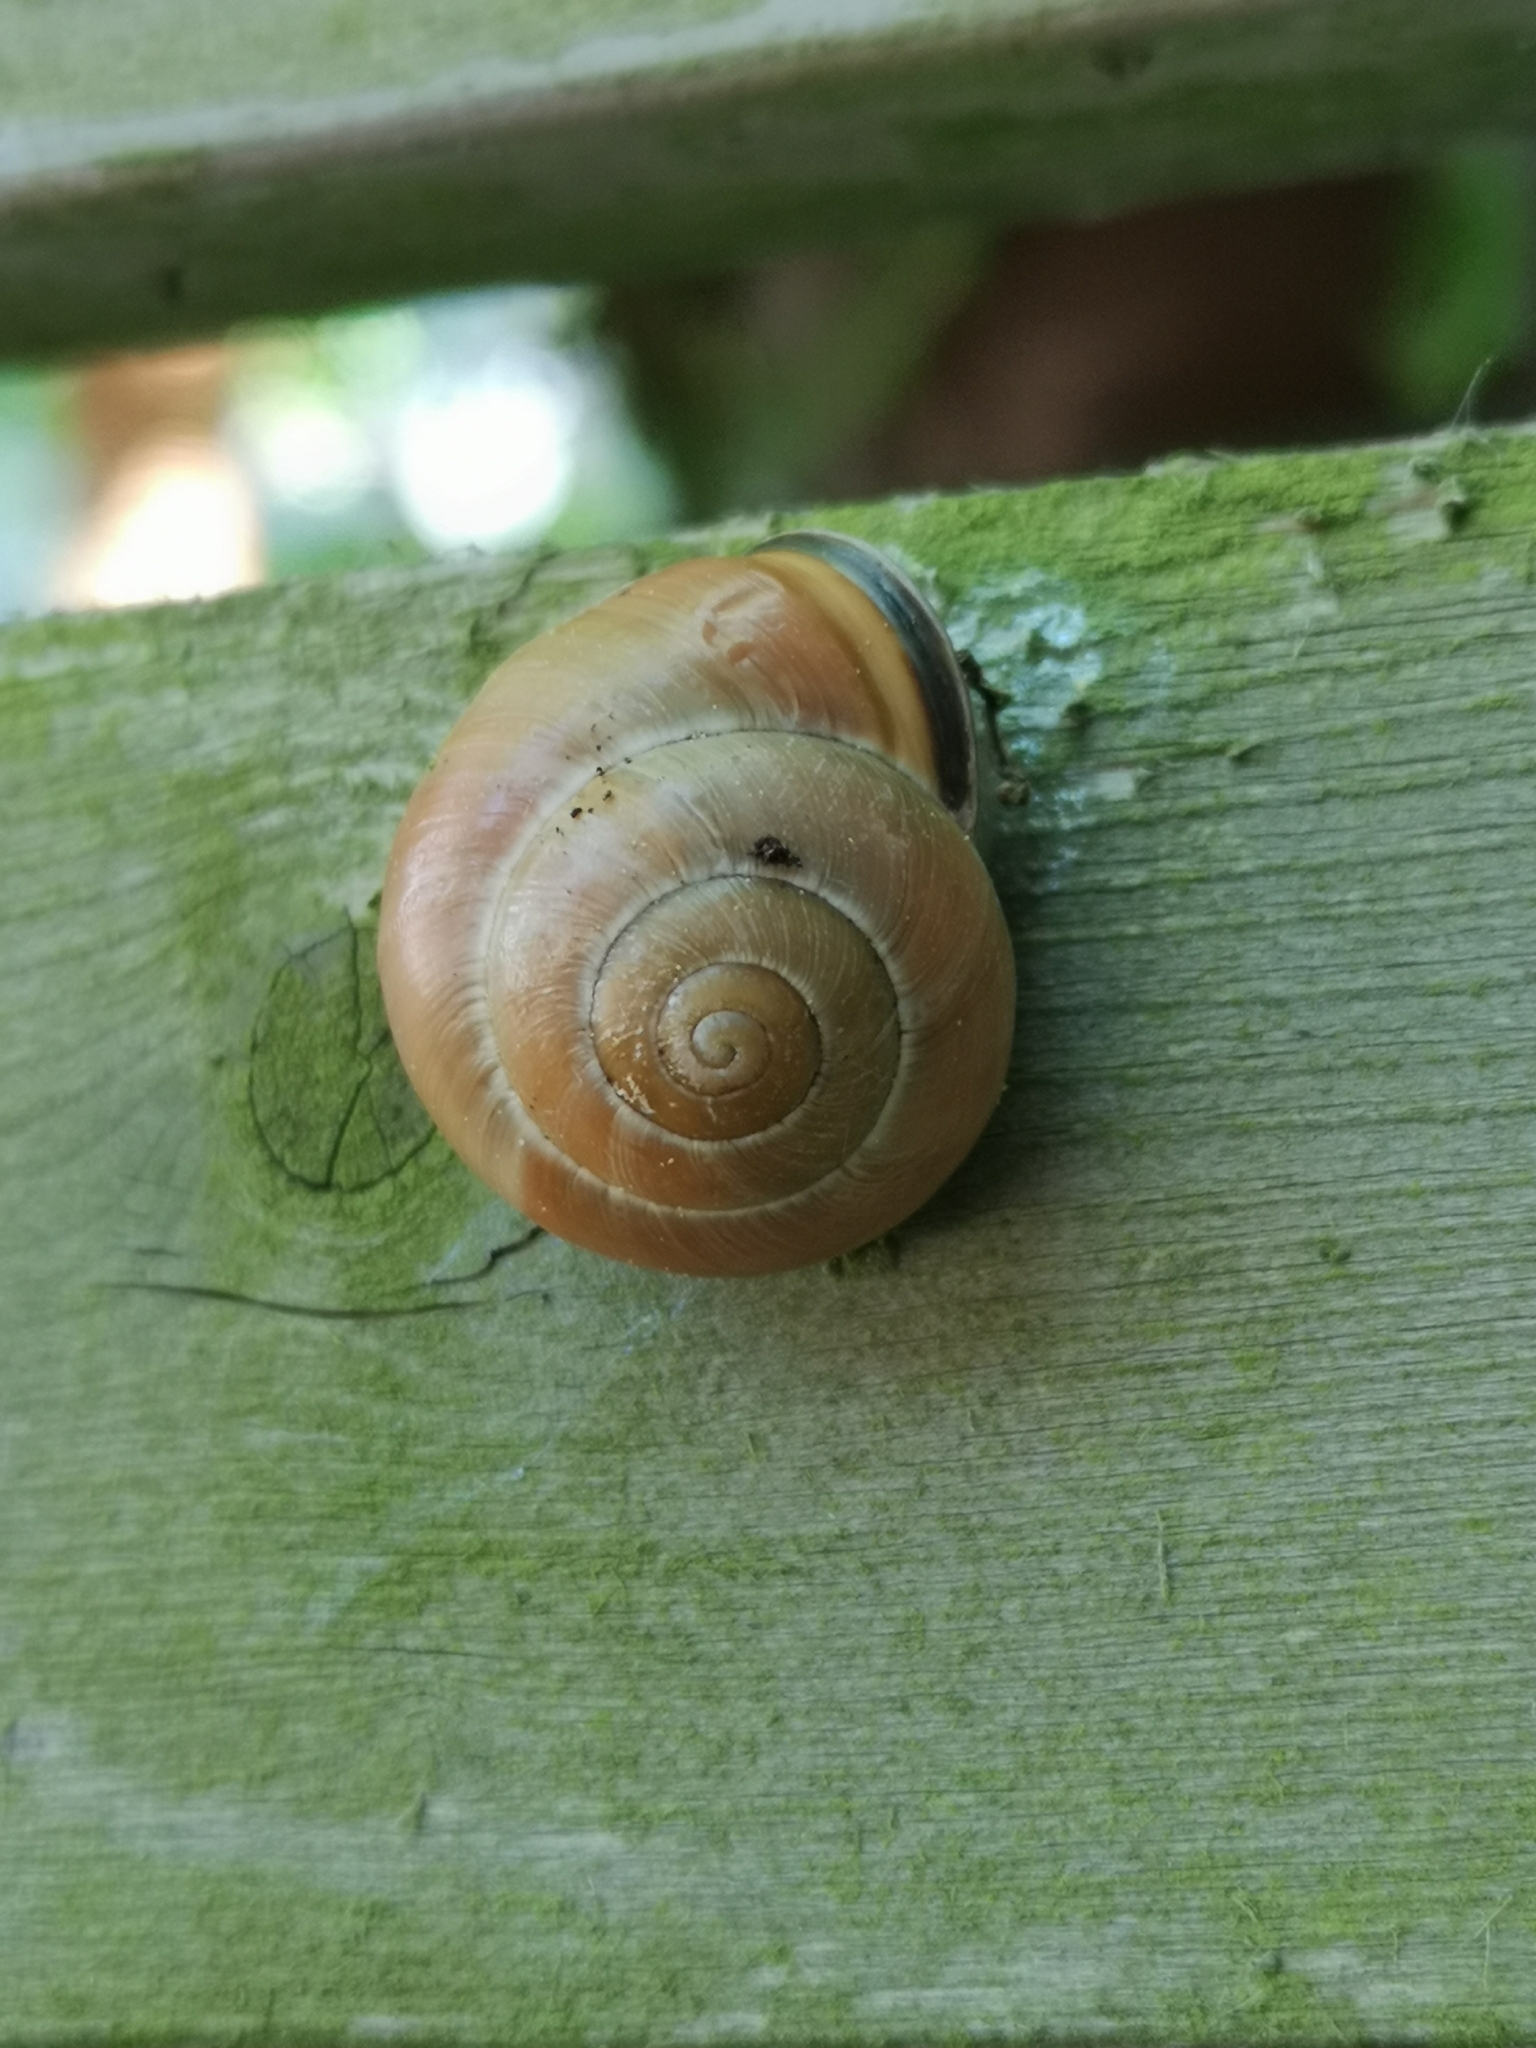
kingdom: Animalia
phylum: Mollusca
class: Gastropoda
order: Stylommatophora
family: Helicidae
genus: Cepaea
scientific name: Cepaea nemoralis
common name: Grovesnail
